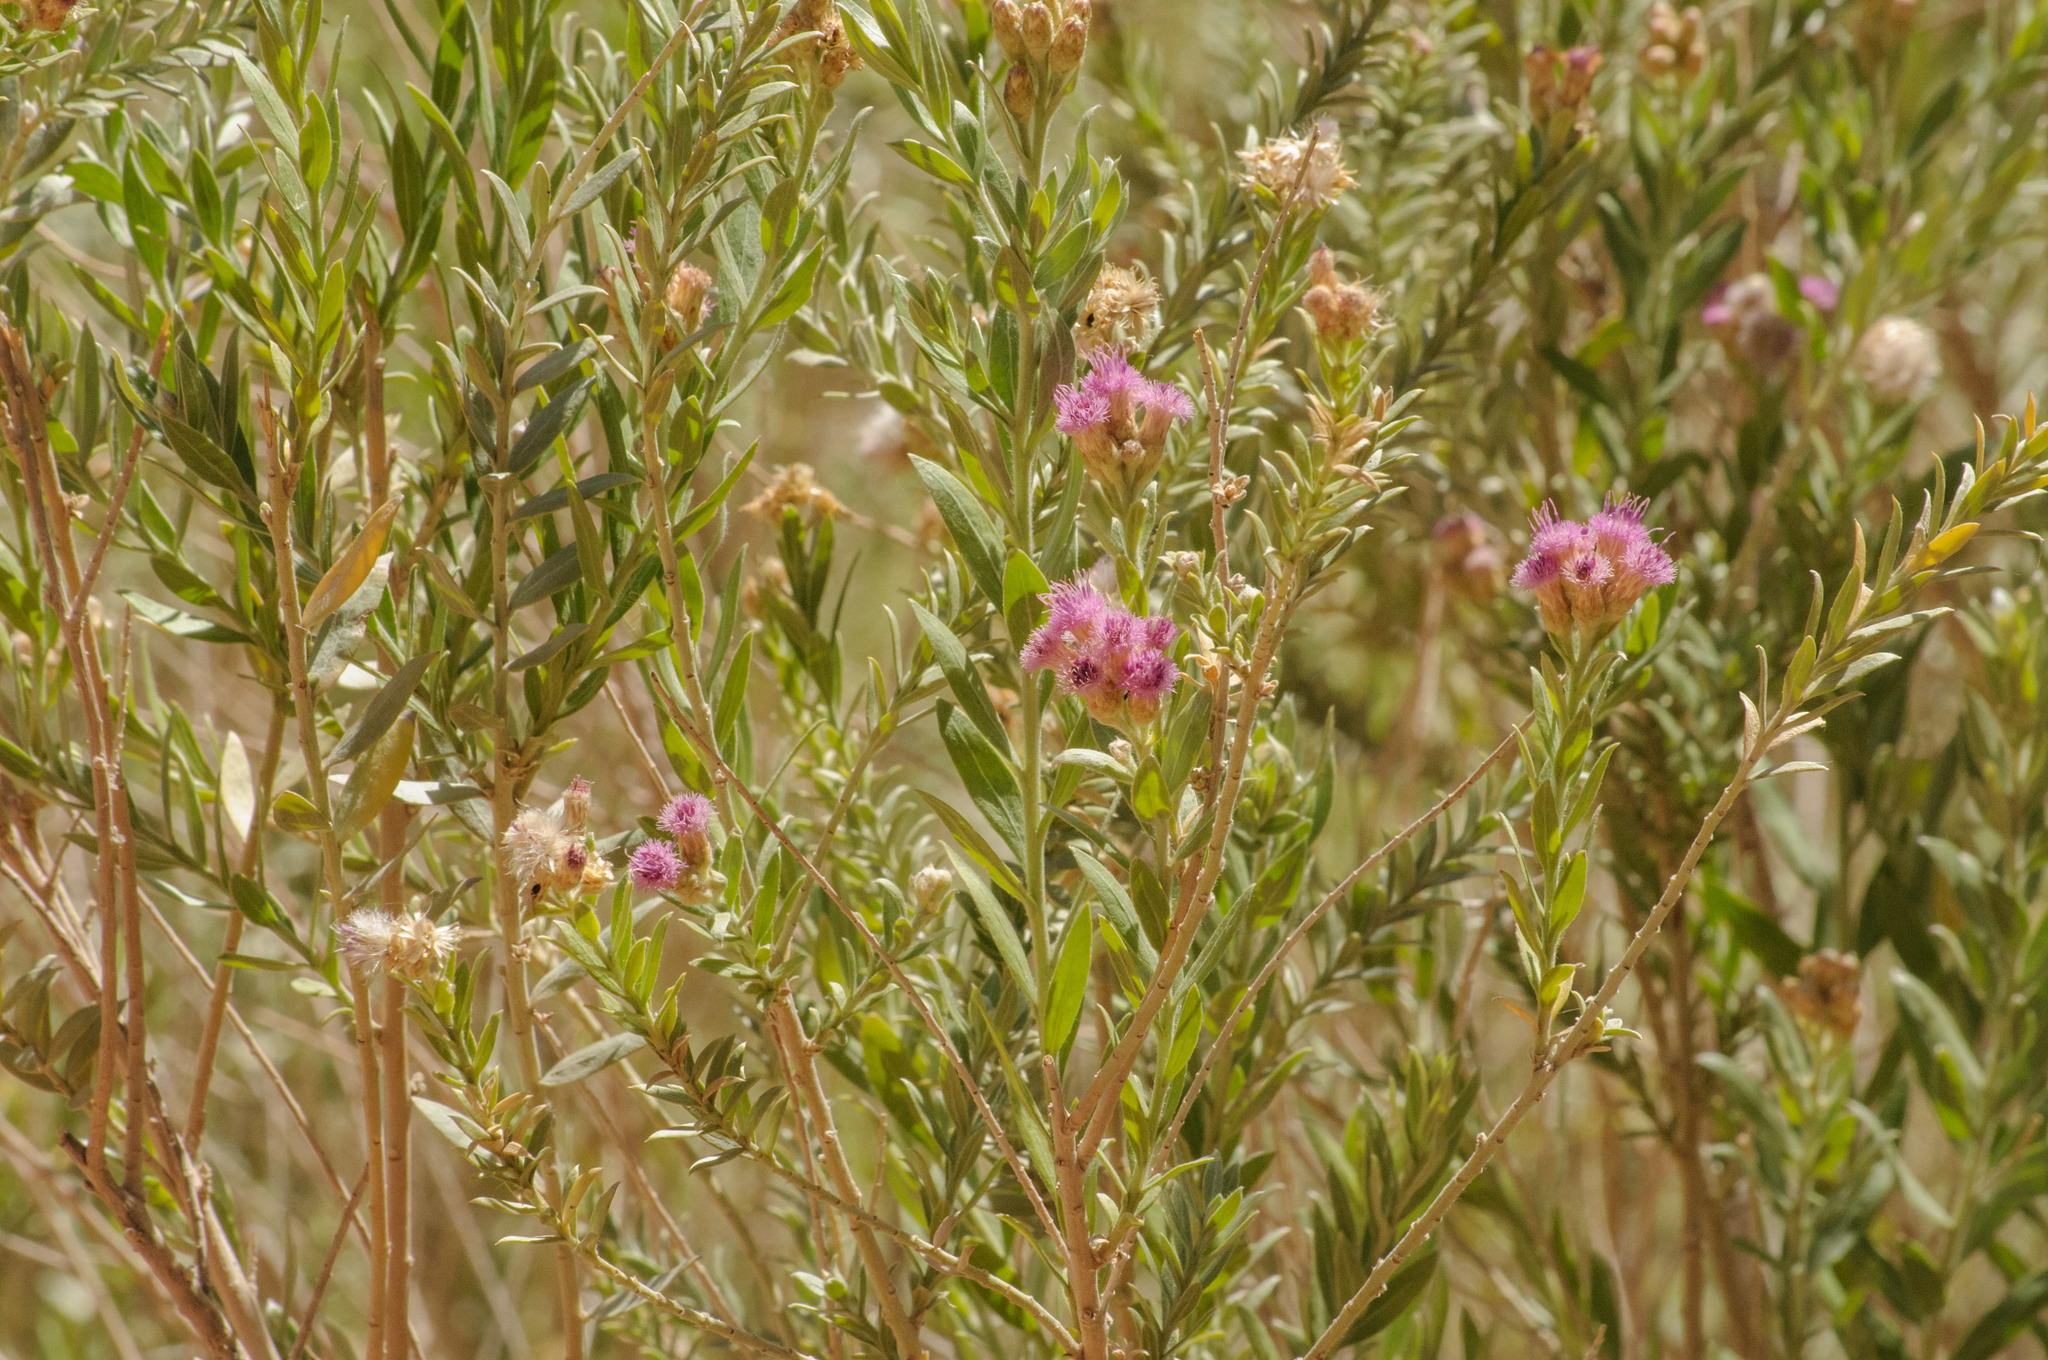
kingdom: Plantae
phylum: Tracheophyta
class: Magnoliopsida
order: Asterales
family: Asteraceae
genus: Pluchea
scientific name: Pluchea sericea
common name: Arrow-weed
